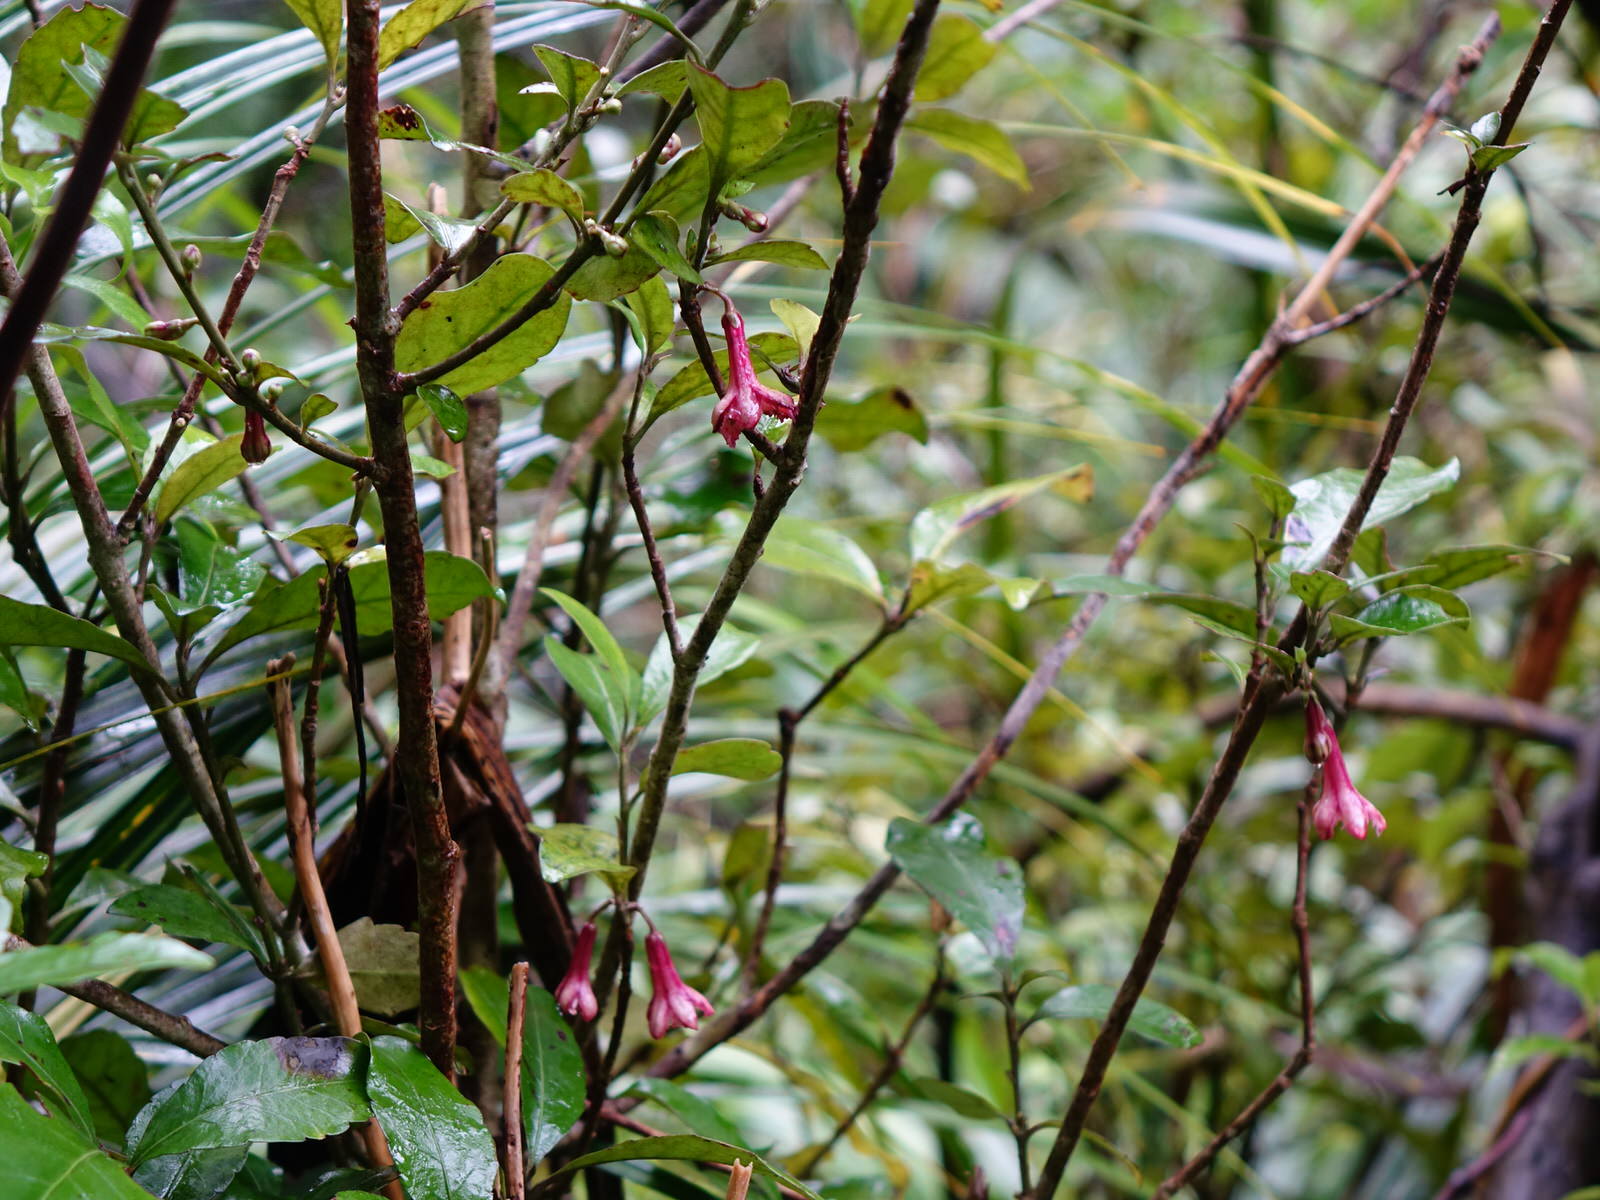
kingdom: Plantae
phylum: Tracheophyta
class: Magnoliopsida
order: Asterales
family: Alseuosmiaceae
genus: Alseuosmia
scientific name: Alseuosmia macrophylla
